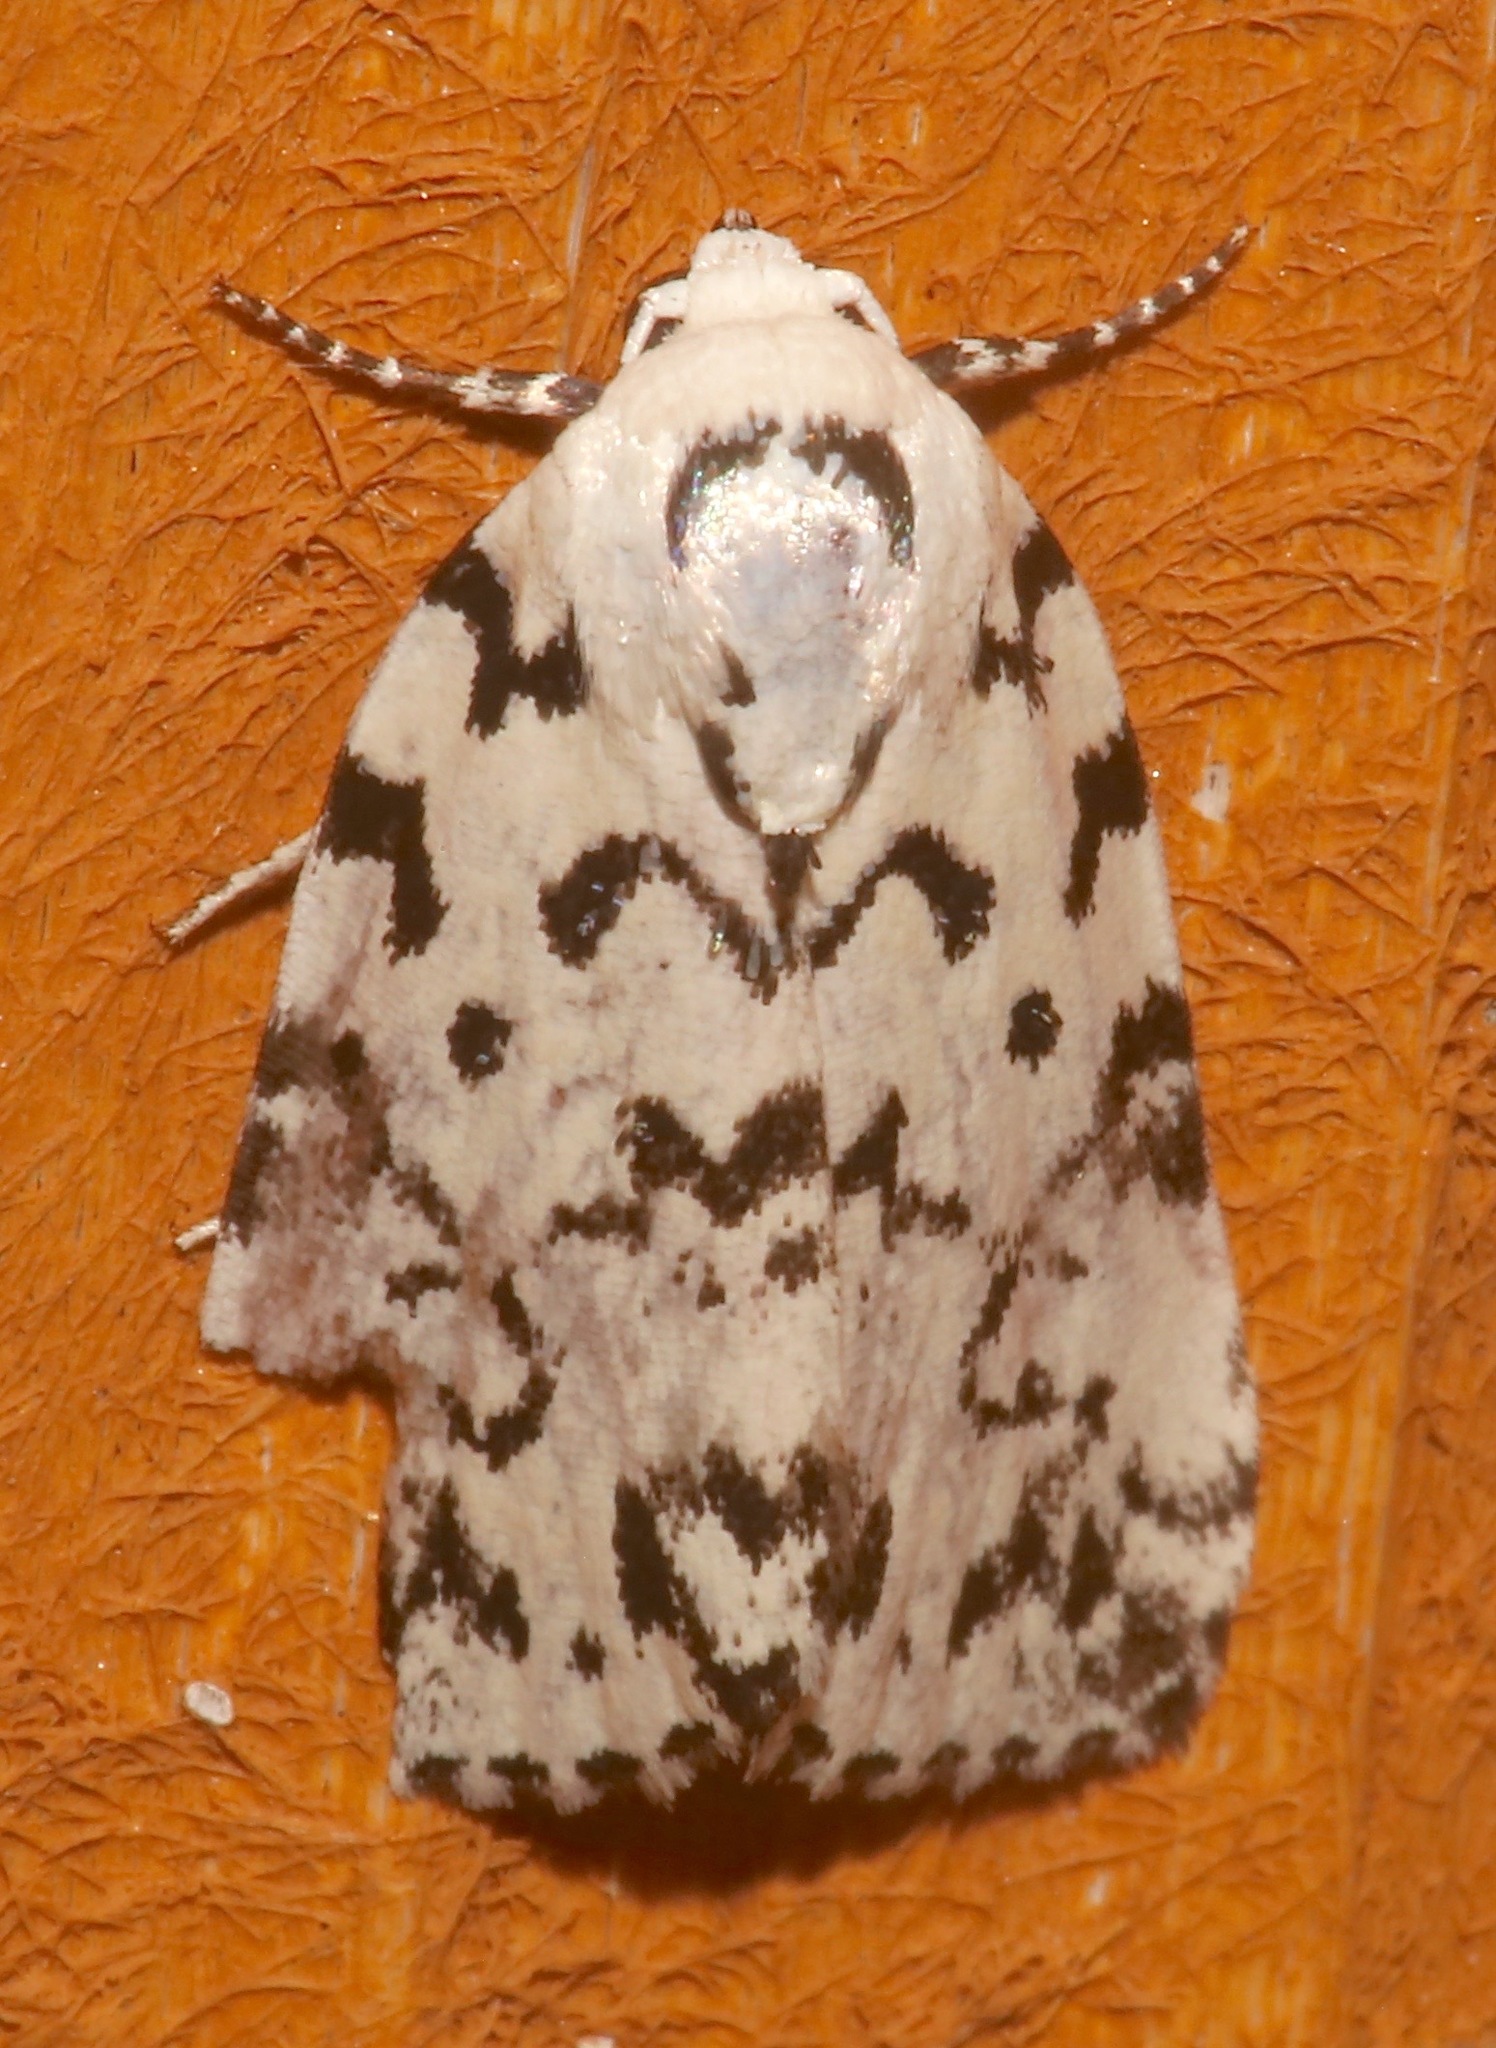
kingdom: Animalia
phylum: Arthropoda
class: Insecta
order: Lepidoptera
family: Noctuidae
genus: Polygrammate
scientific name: Polygrammate hebraeicum
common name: Hebrew moth
